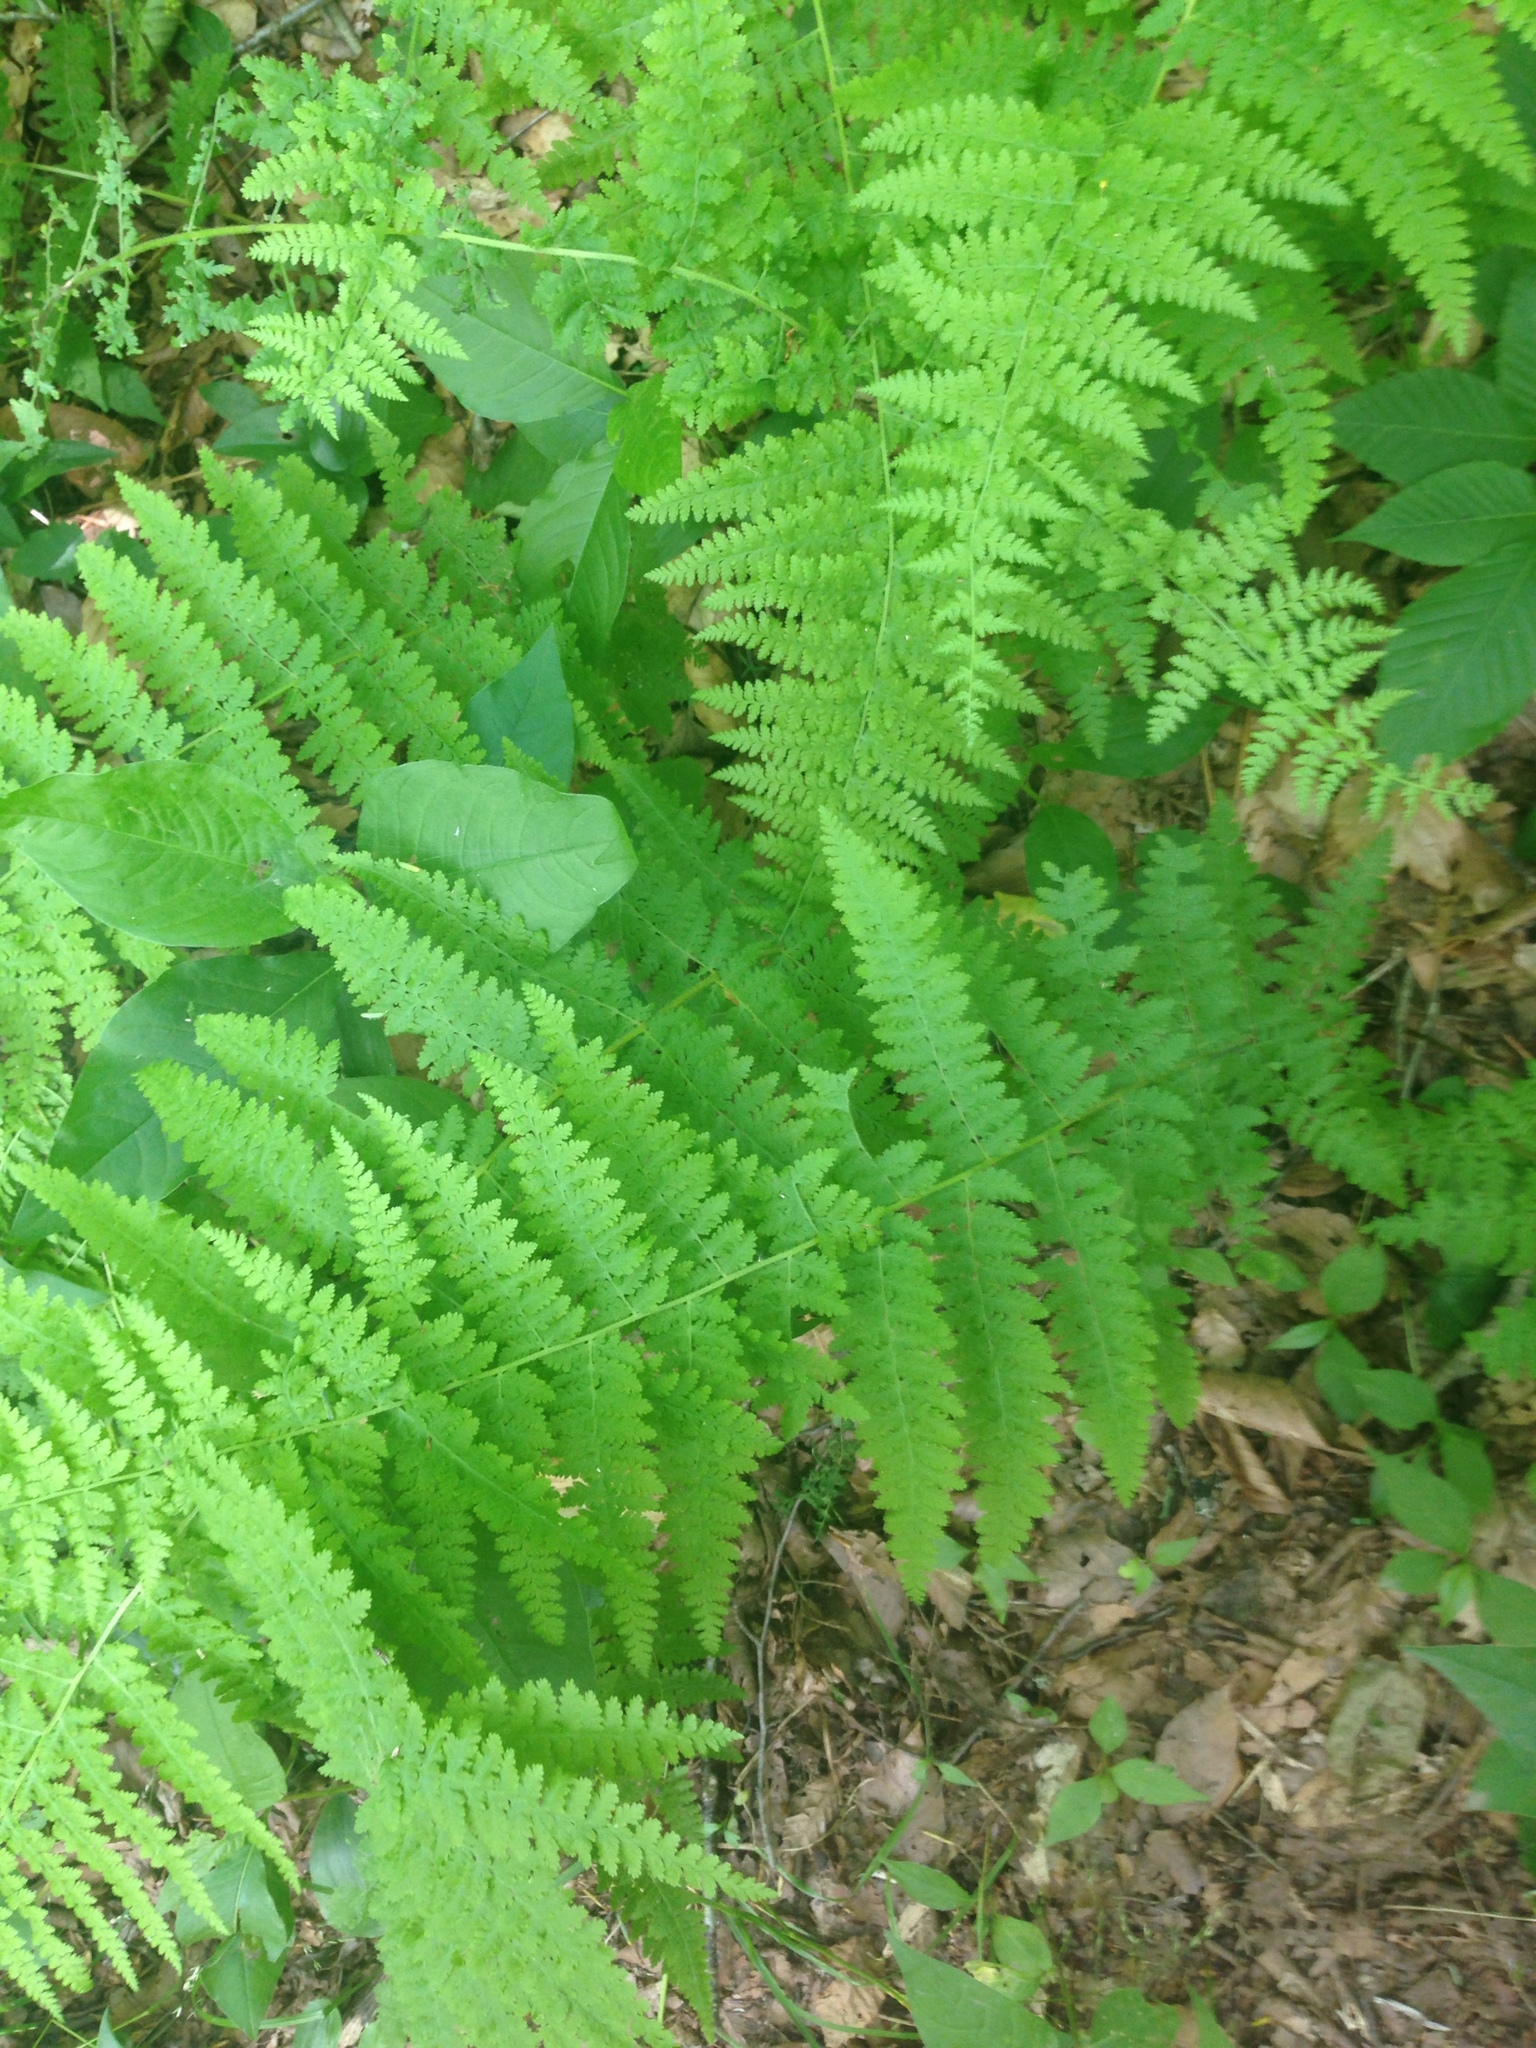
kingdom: Plantae
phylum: Tracheophyta
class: Polypodiopsida
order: Polypodiales
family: Dennstaedtiaceae
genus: Sitobolium
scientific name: Sitobolium punctilobum
